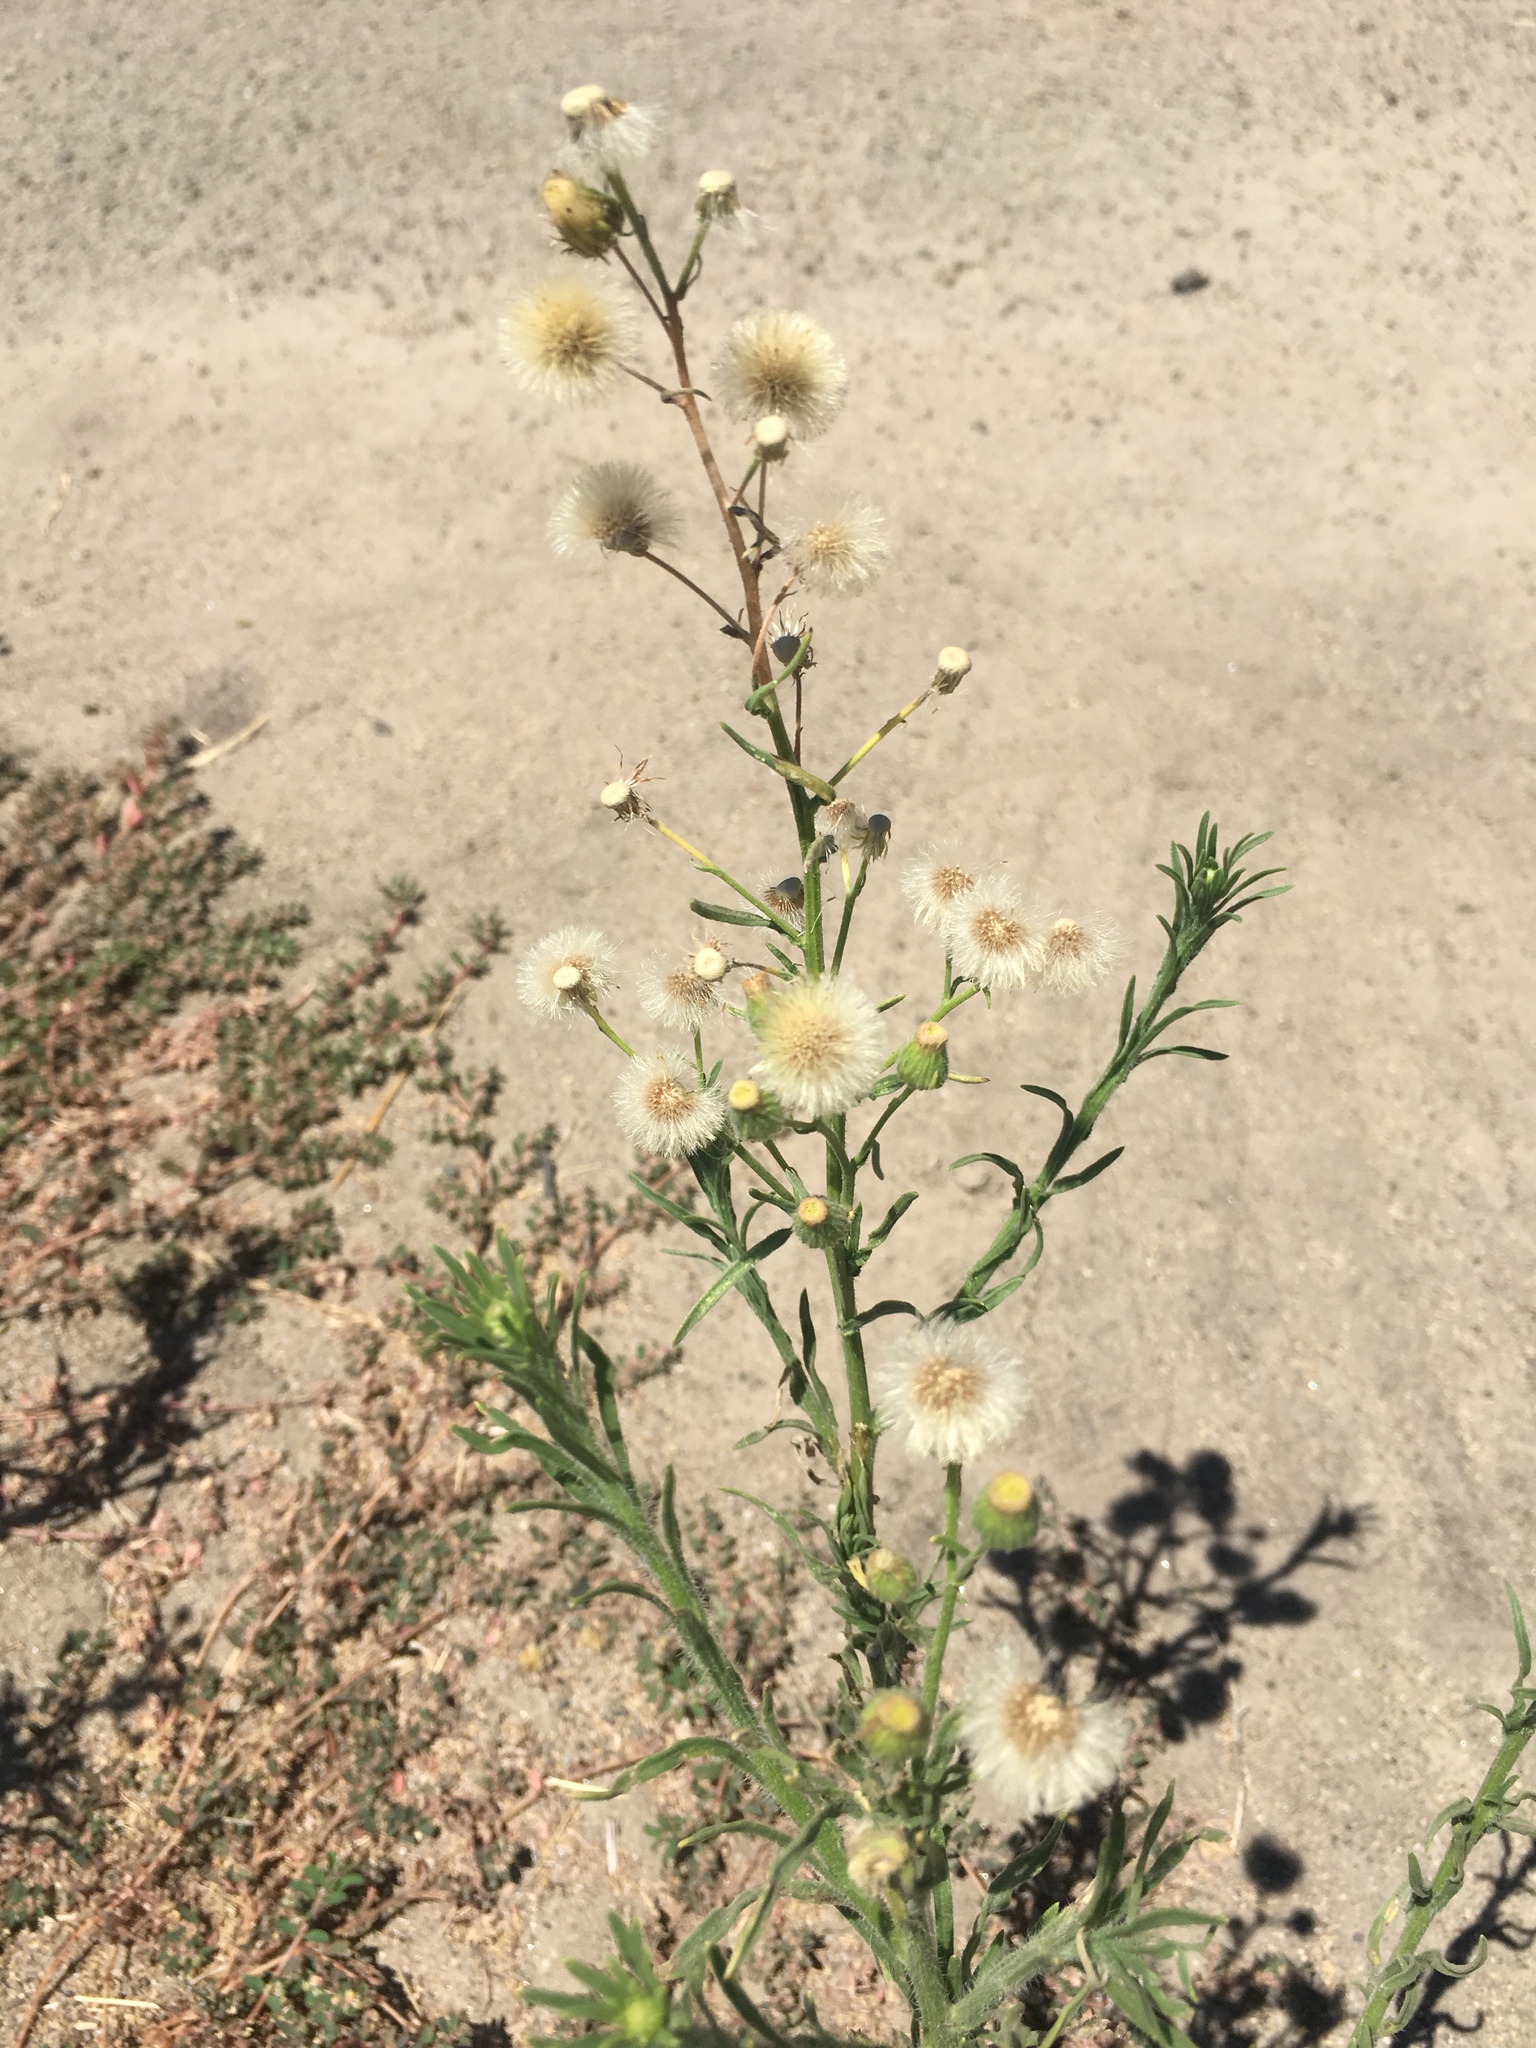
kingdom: Plantae
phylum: Tracheophyta
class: Magnoliopsida
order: Asterales
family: Asteraceae
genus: Erigeron
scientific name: Erigeron bonariensis
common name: Argentine fleabane
